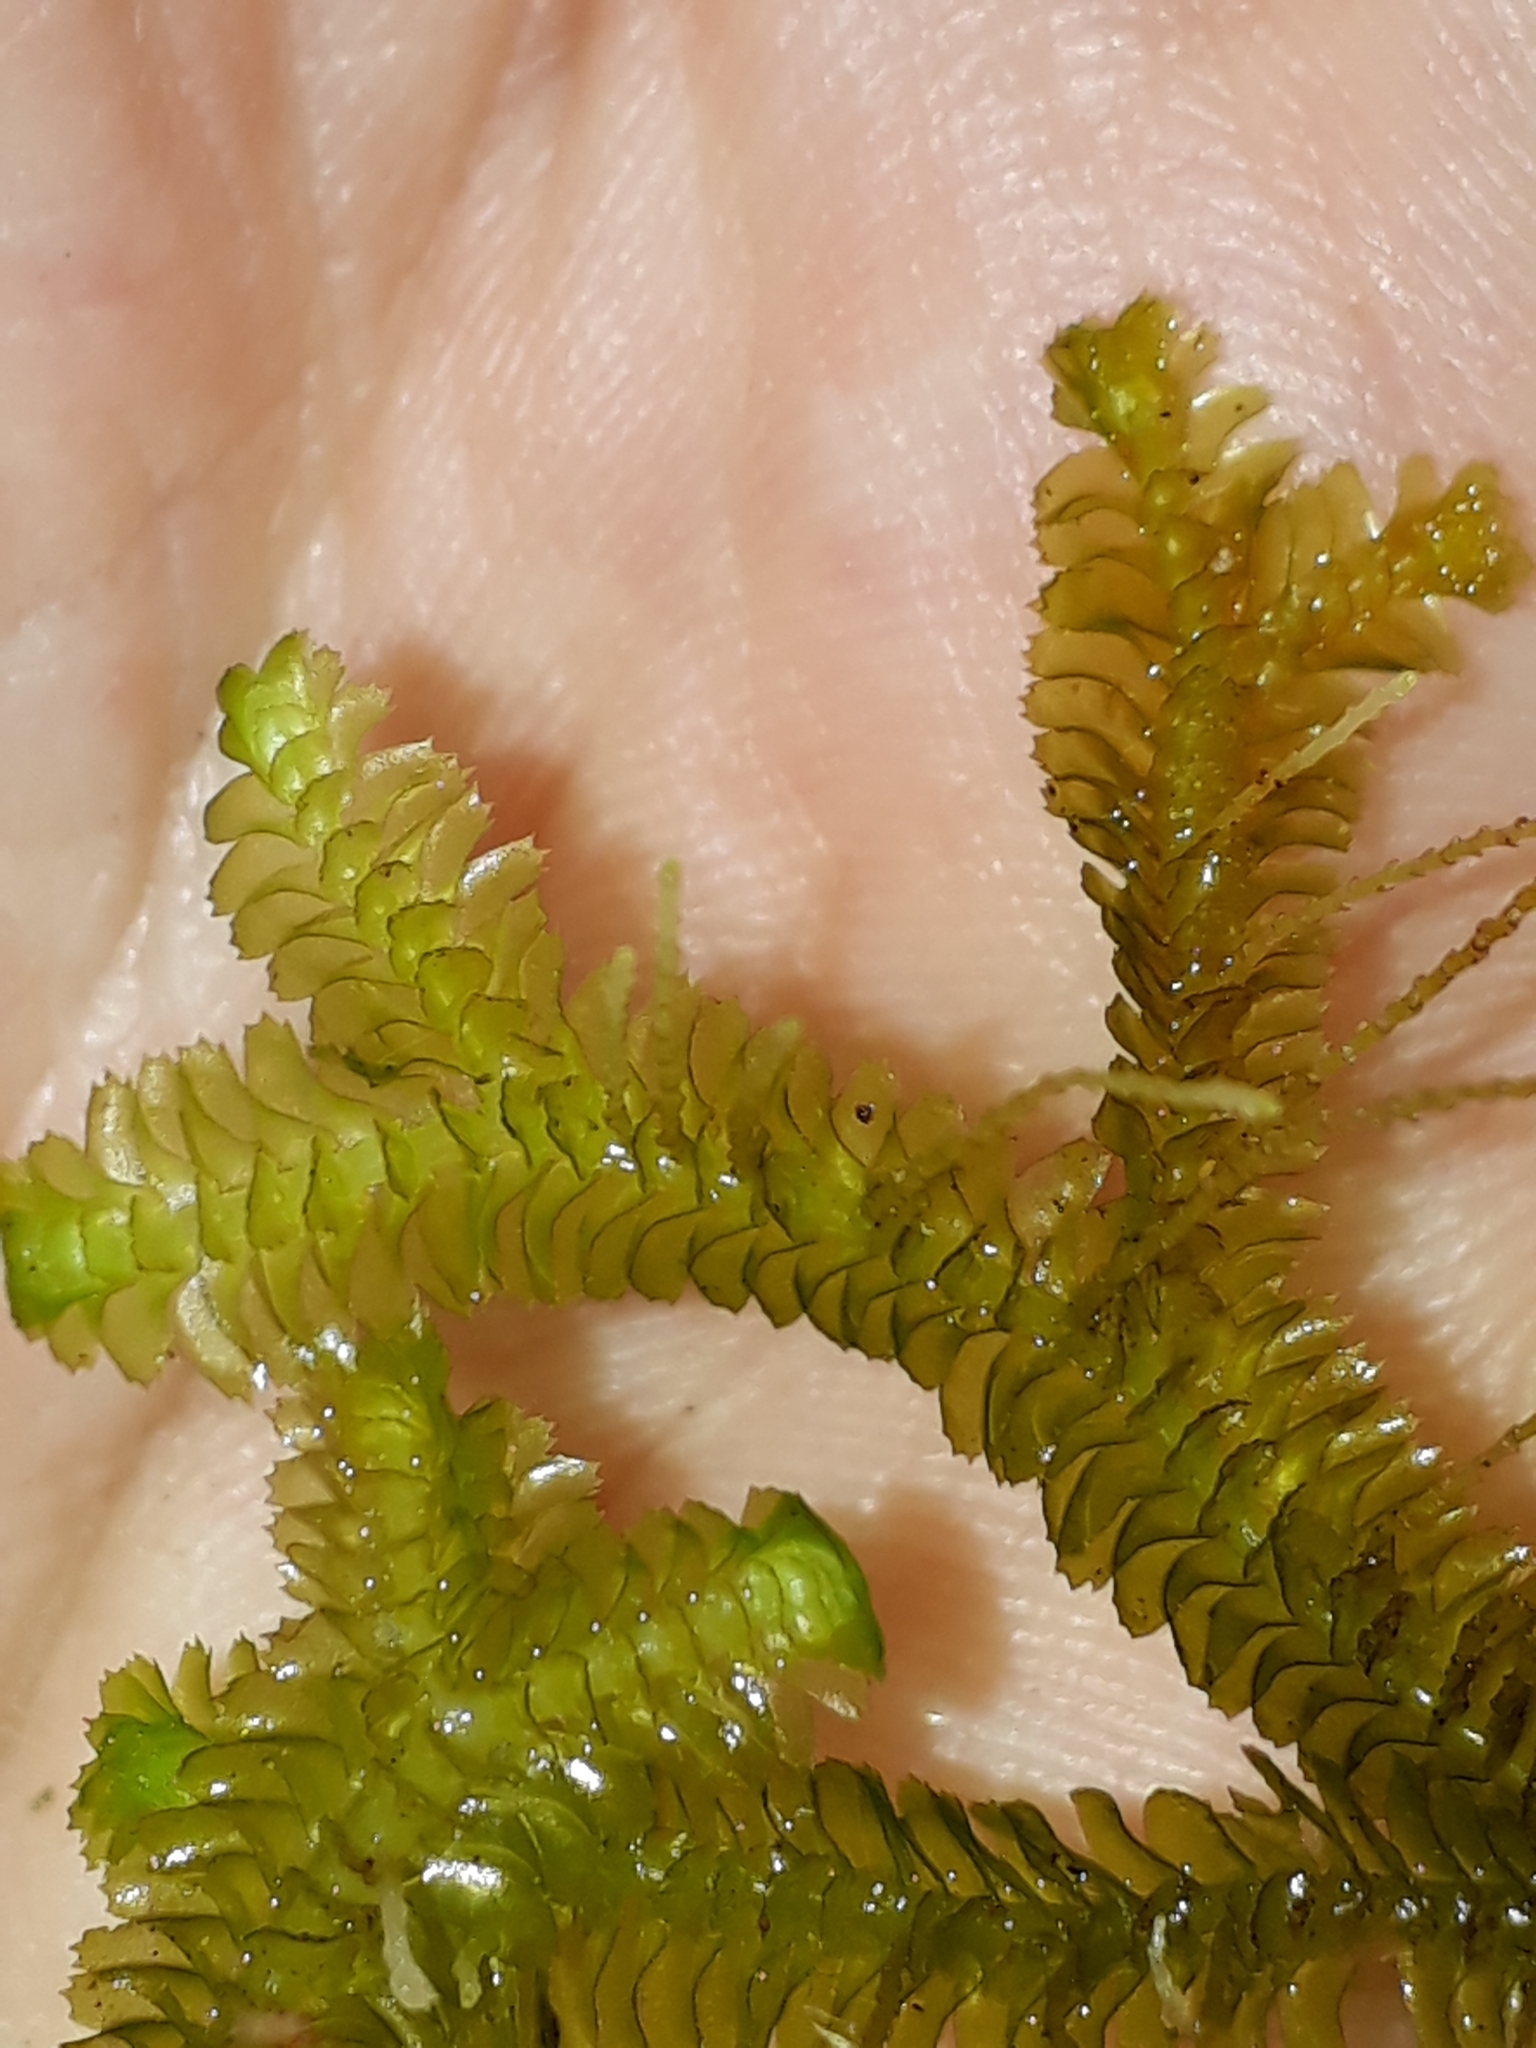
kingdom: Plantae
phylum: Marchantiophyta
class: Jungermanniopsida
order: Jungermanniales
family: Lepidoziaceae
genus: Bazzania
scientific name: Bazzania novae-zelandiae
